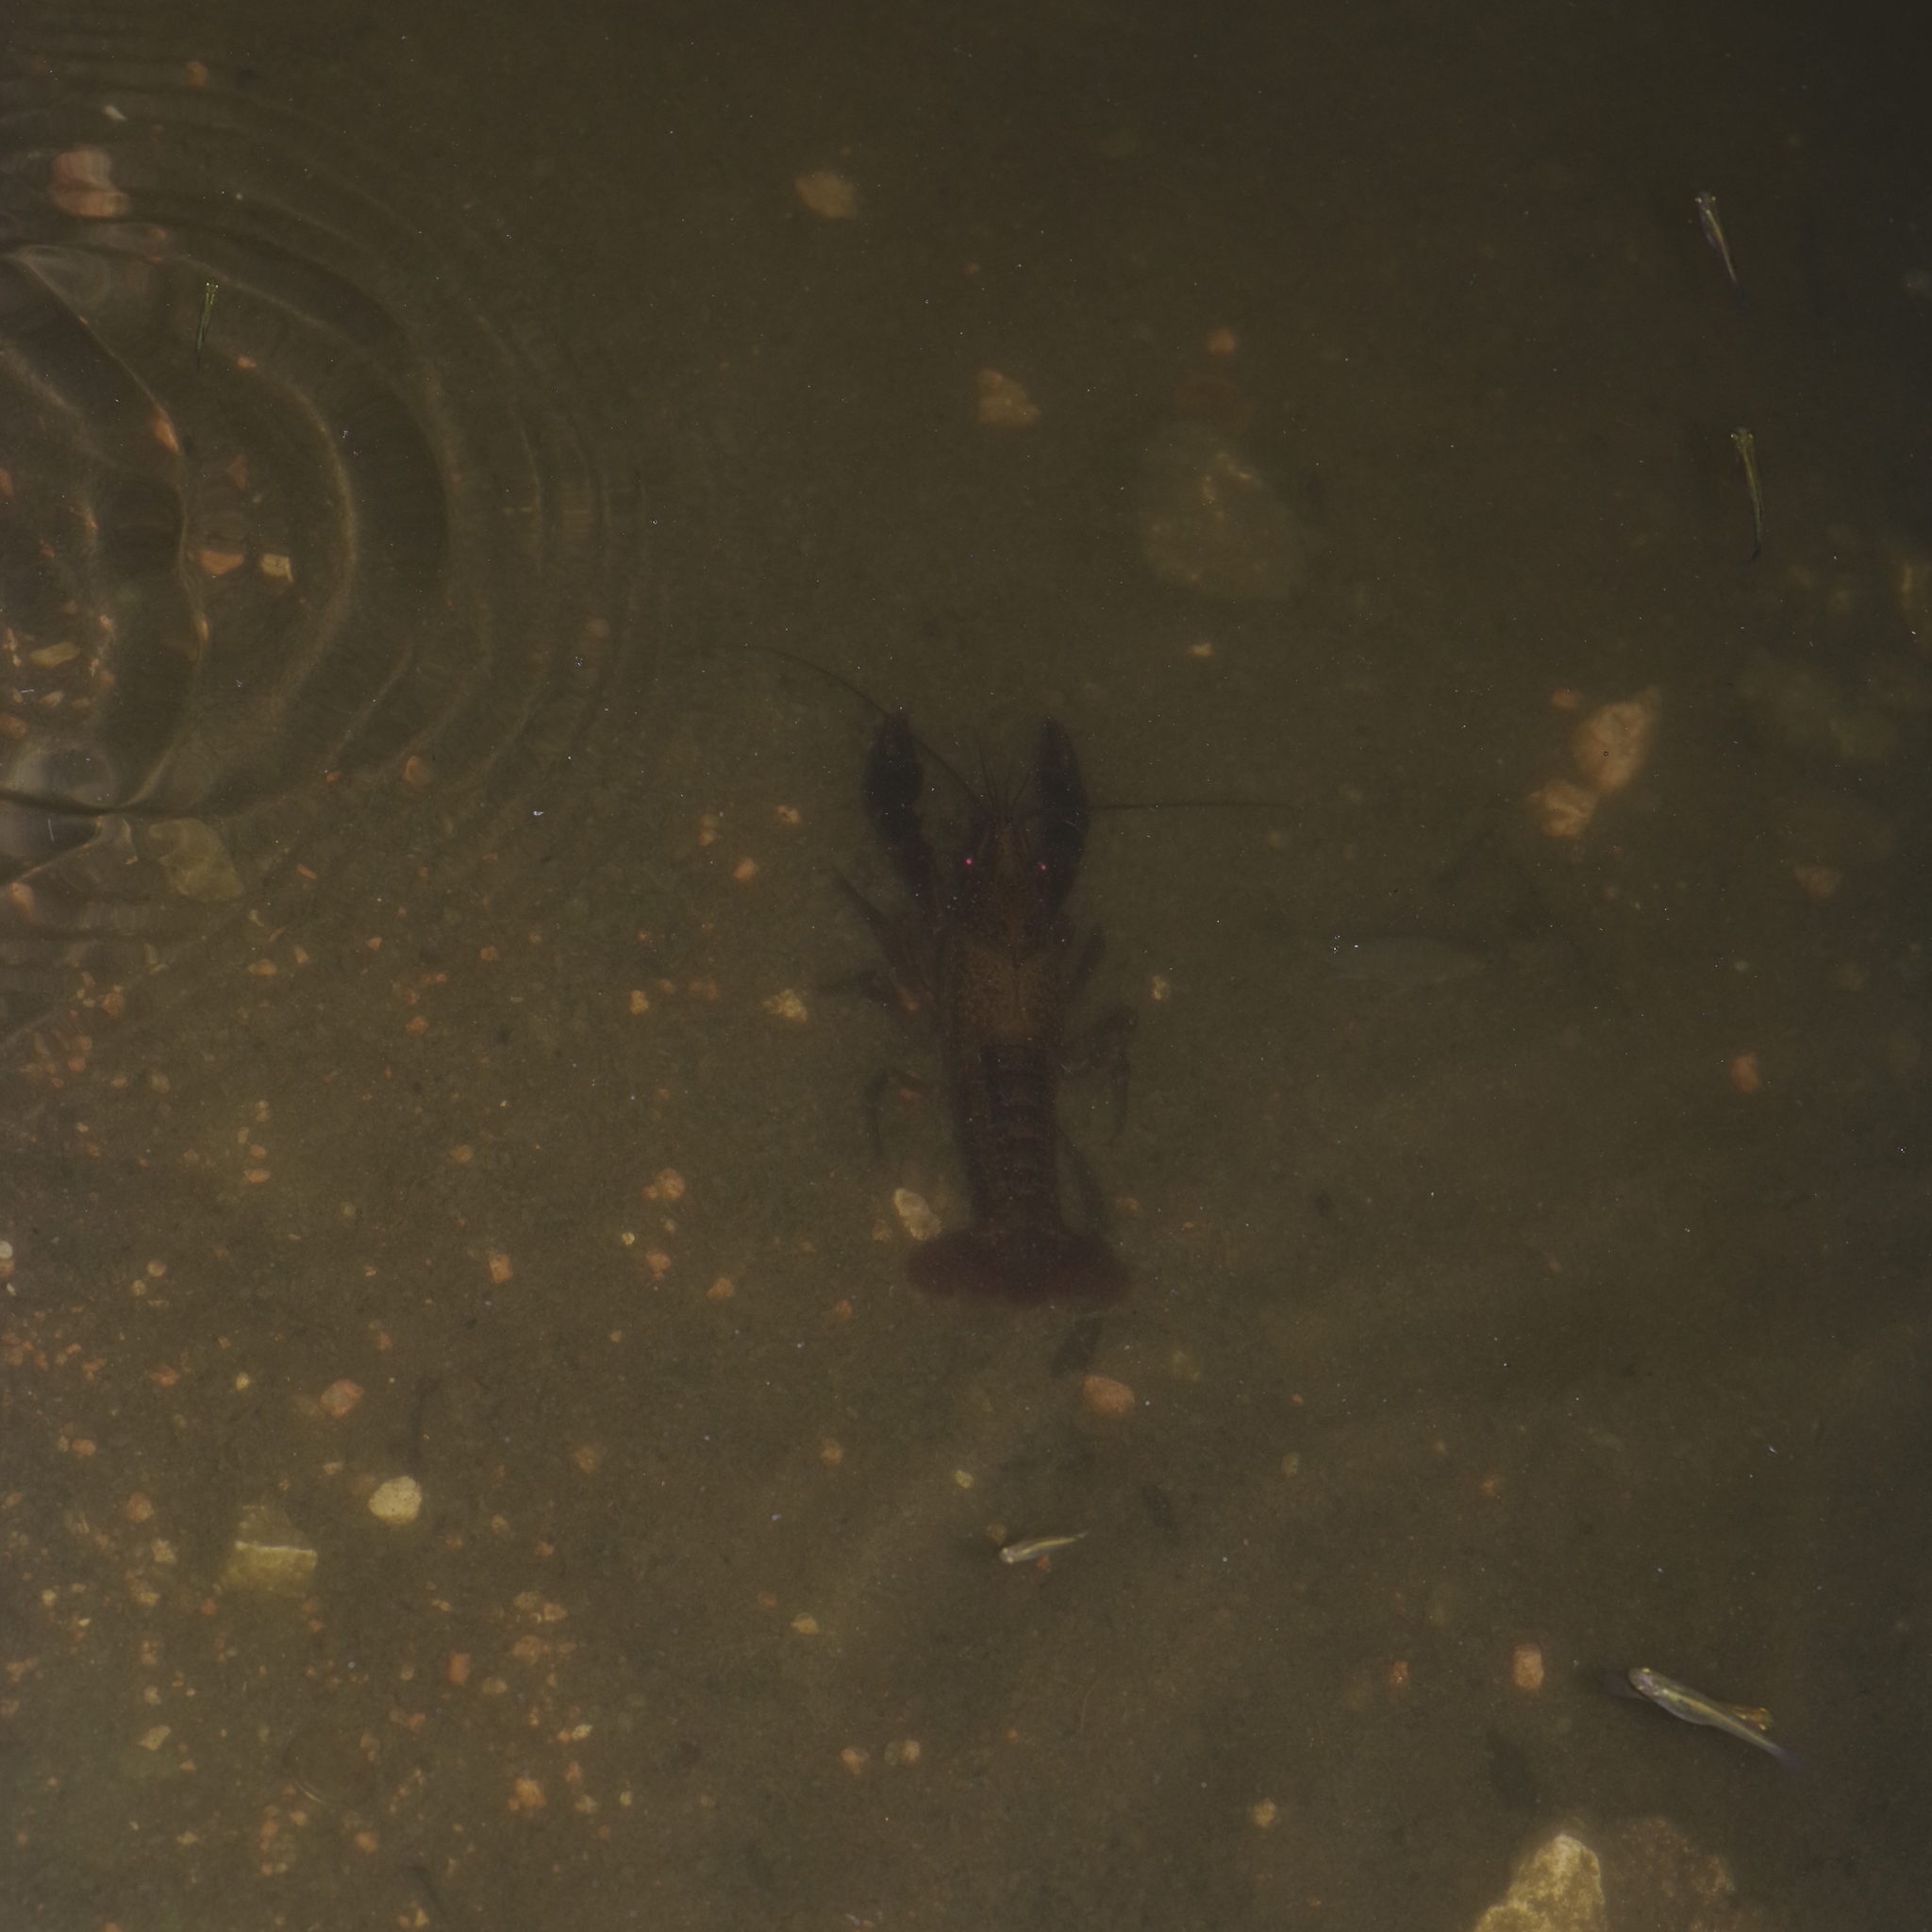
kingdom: Animalia
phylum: Arthropoda
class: Malacostraca
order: Decapoda
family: Cambaridae
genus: Procambarus
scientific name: Procambarus clarkii
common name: Red swamp crayfish
